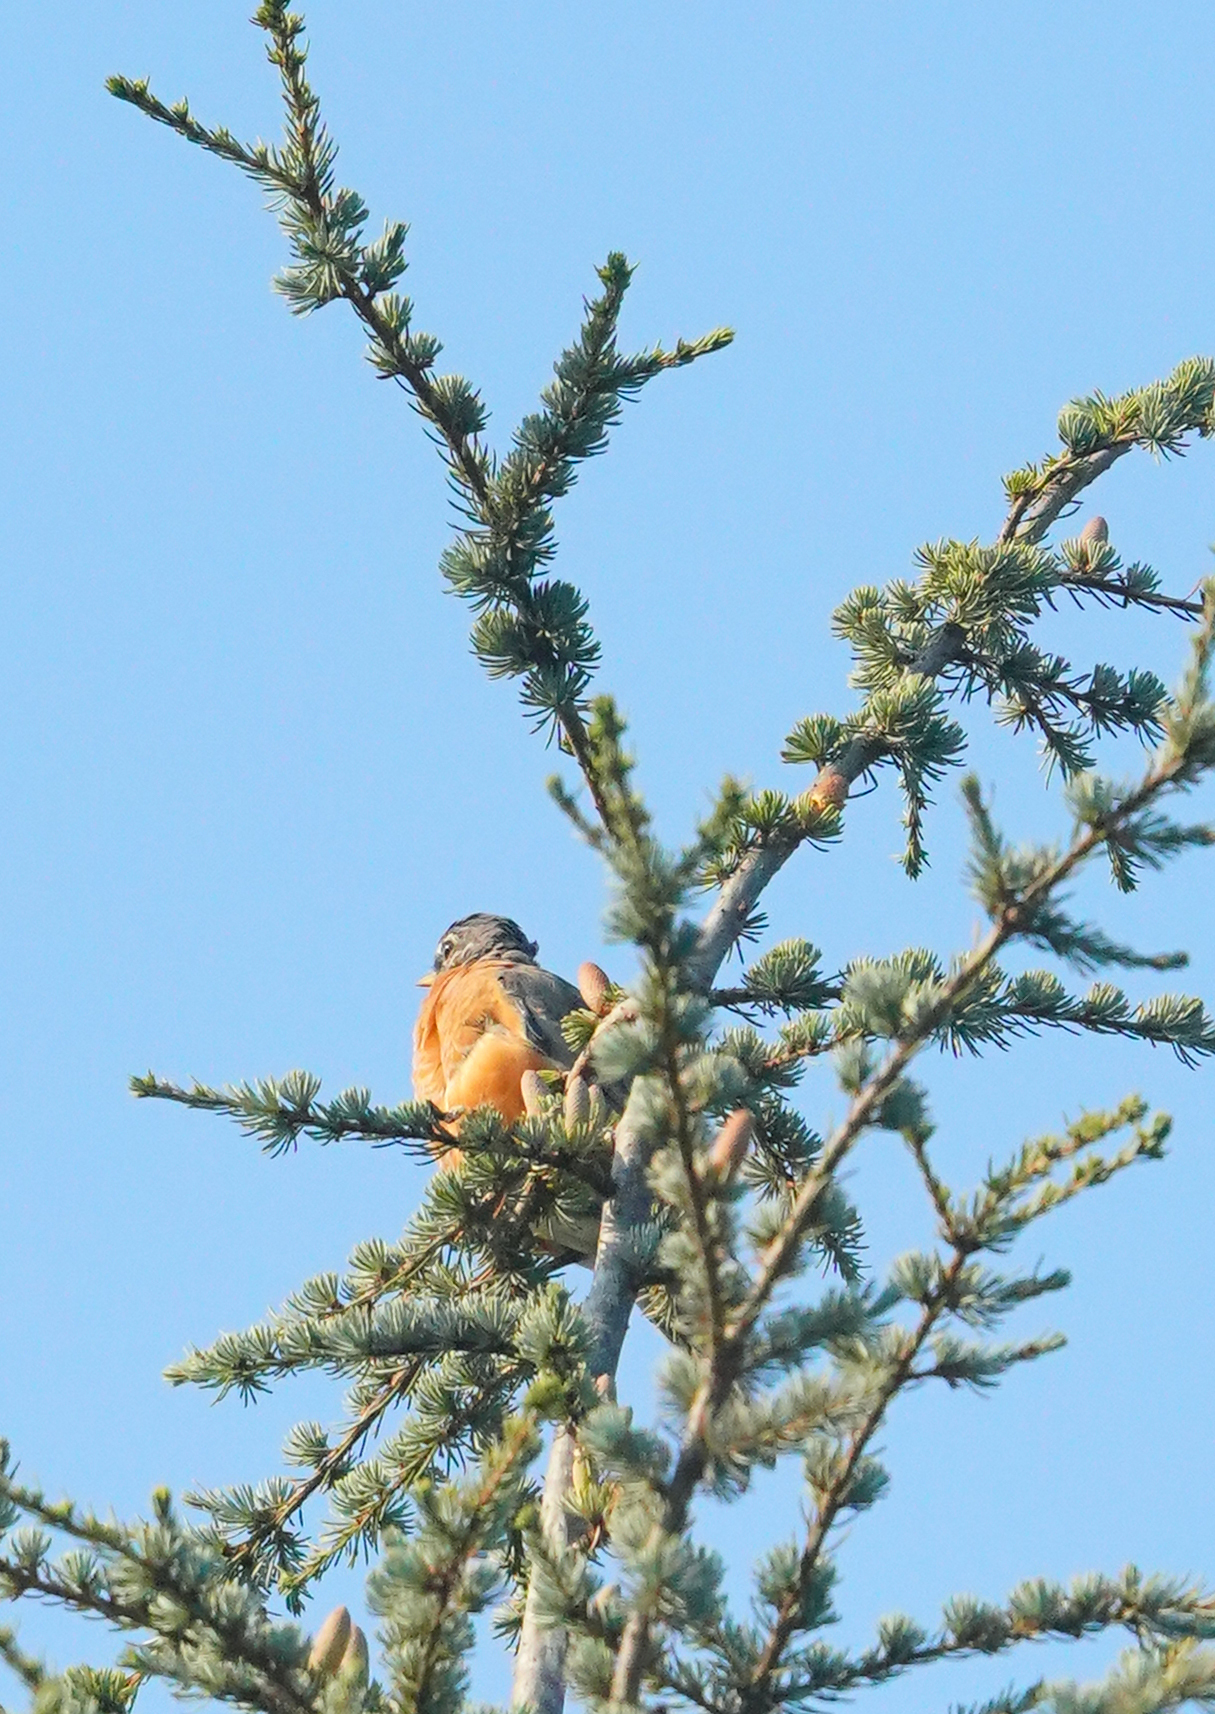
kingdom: Animalia
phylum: Chordata
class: Aves
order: Passeriformes
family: Turdidae
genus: Turdus
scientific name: Turdus migratorius
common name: American robin
